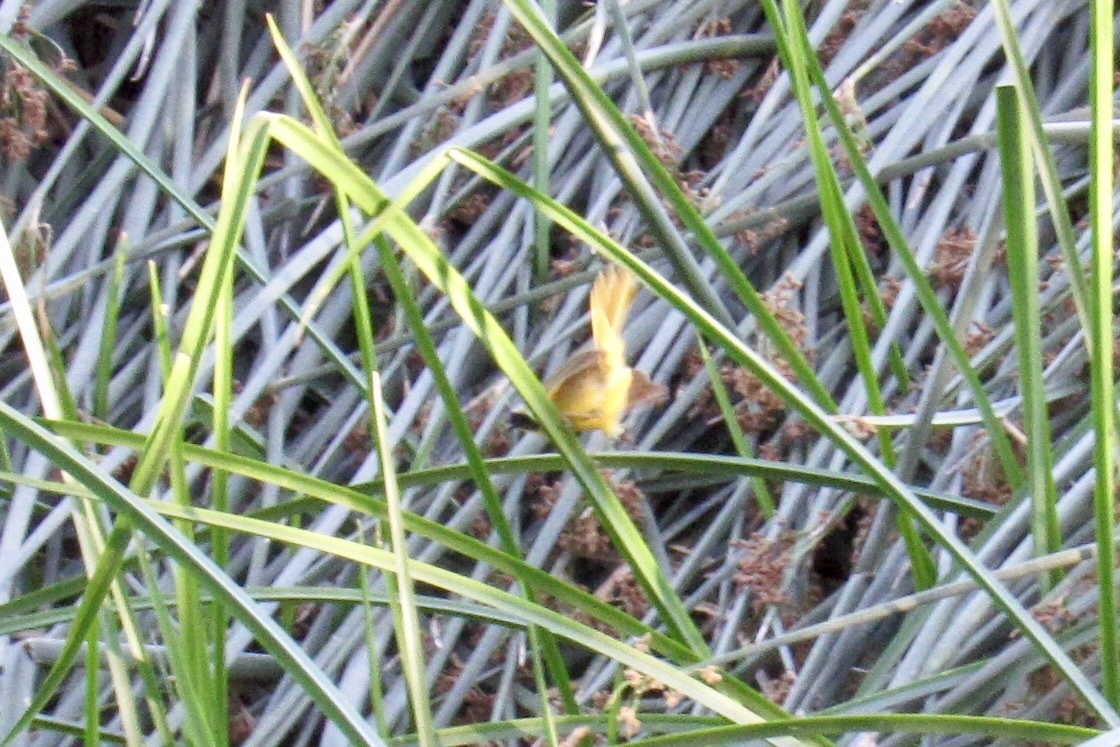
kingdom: Animalia
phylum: Chordata
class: Aves
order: Passeriformes
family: Parulidae
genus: Geothlypis
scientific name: Geothlypis trichas
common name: Common yellowthroat
